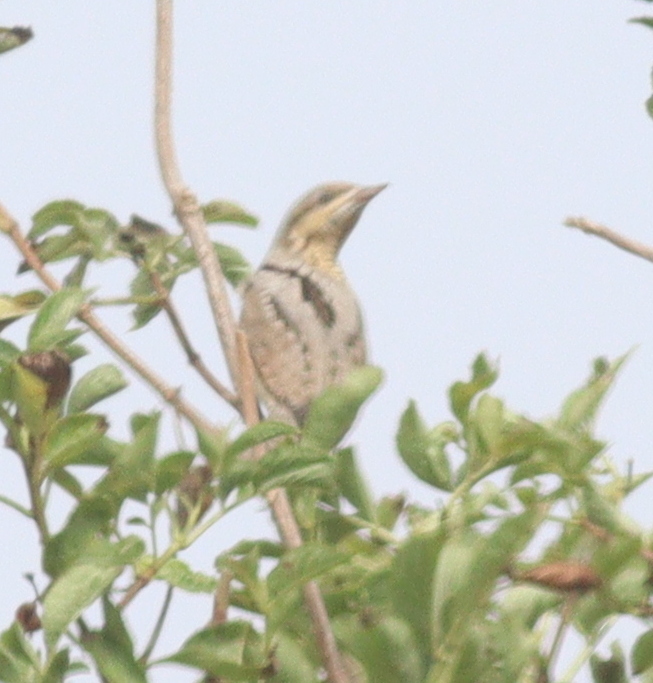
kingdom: Animalia
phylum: Chordata
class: Aves
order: Piciformes
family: Picidae
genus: Jynx
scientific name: Jynx torquilla
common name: Eurasian wryneck
